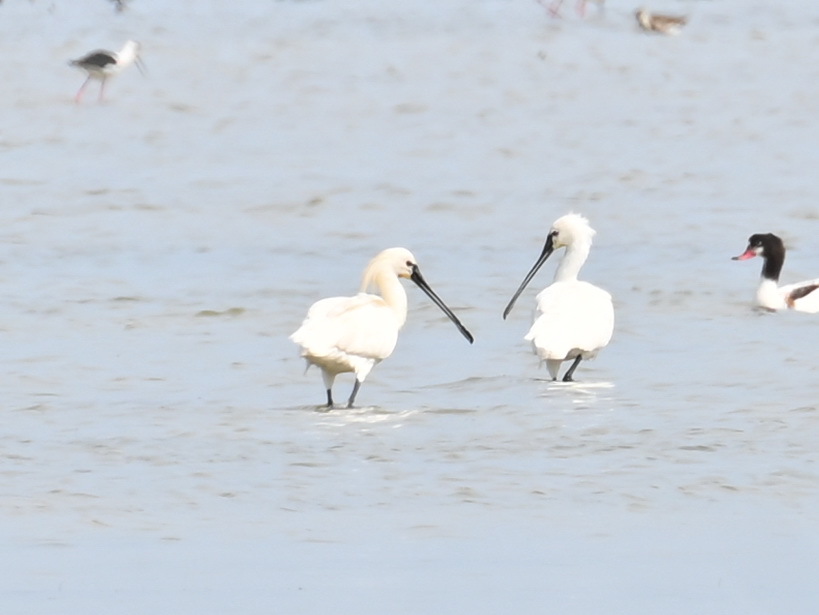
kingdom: Animalia
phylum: Chordata
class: Aves
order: Pelecaniformes
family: Threskiornithidae
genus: Platalea
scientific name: Platalea leucorodia
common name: Eurasian spoonbill
